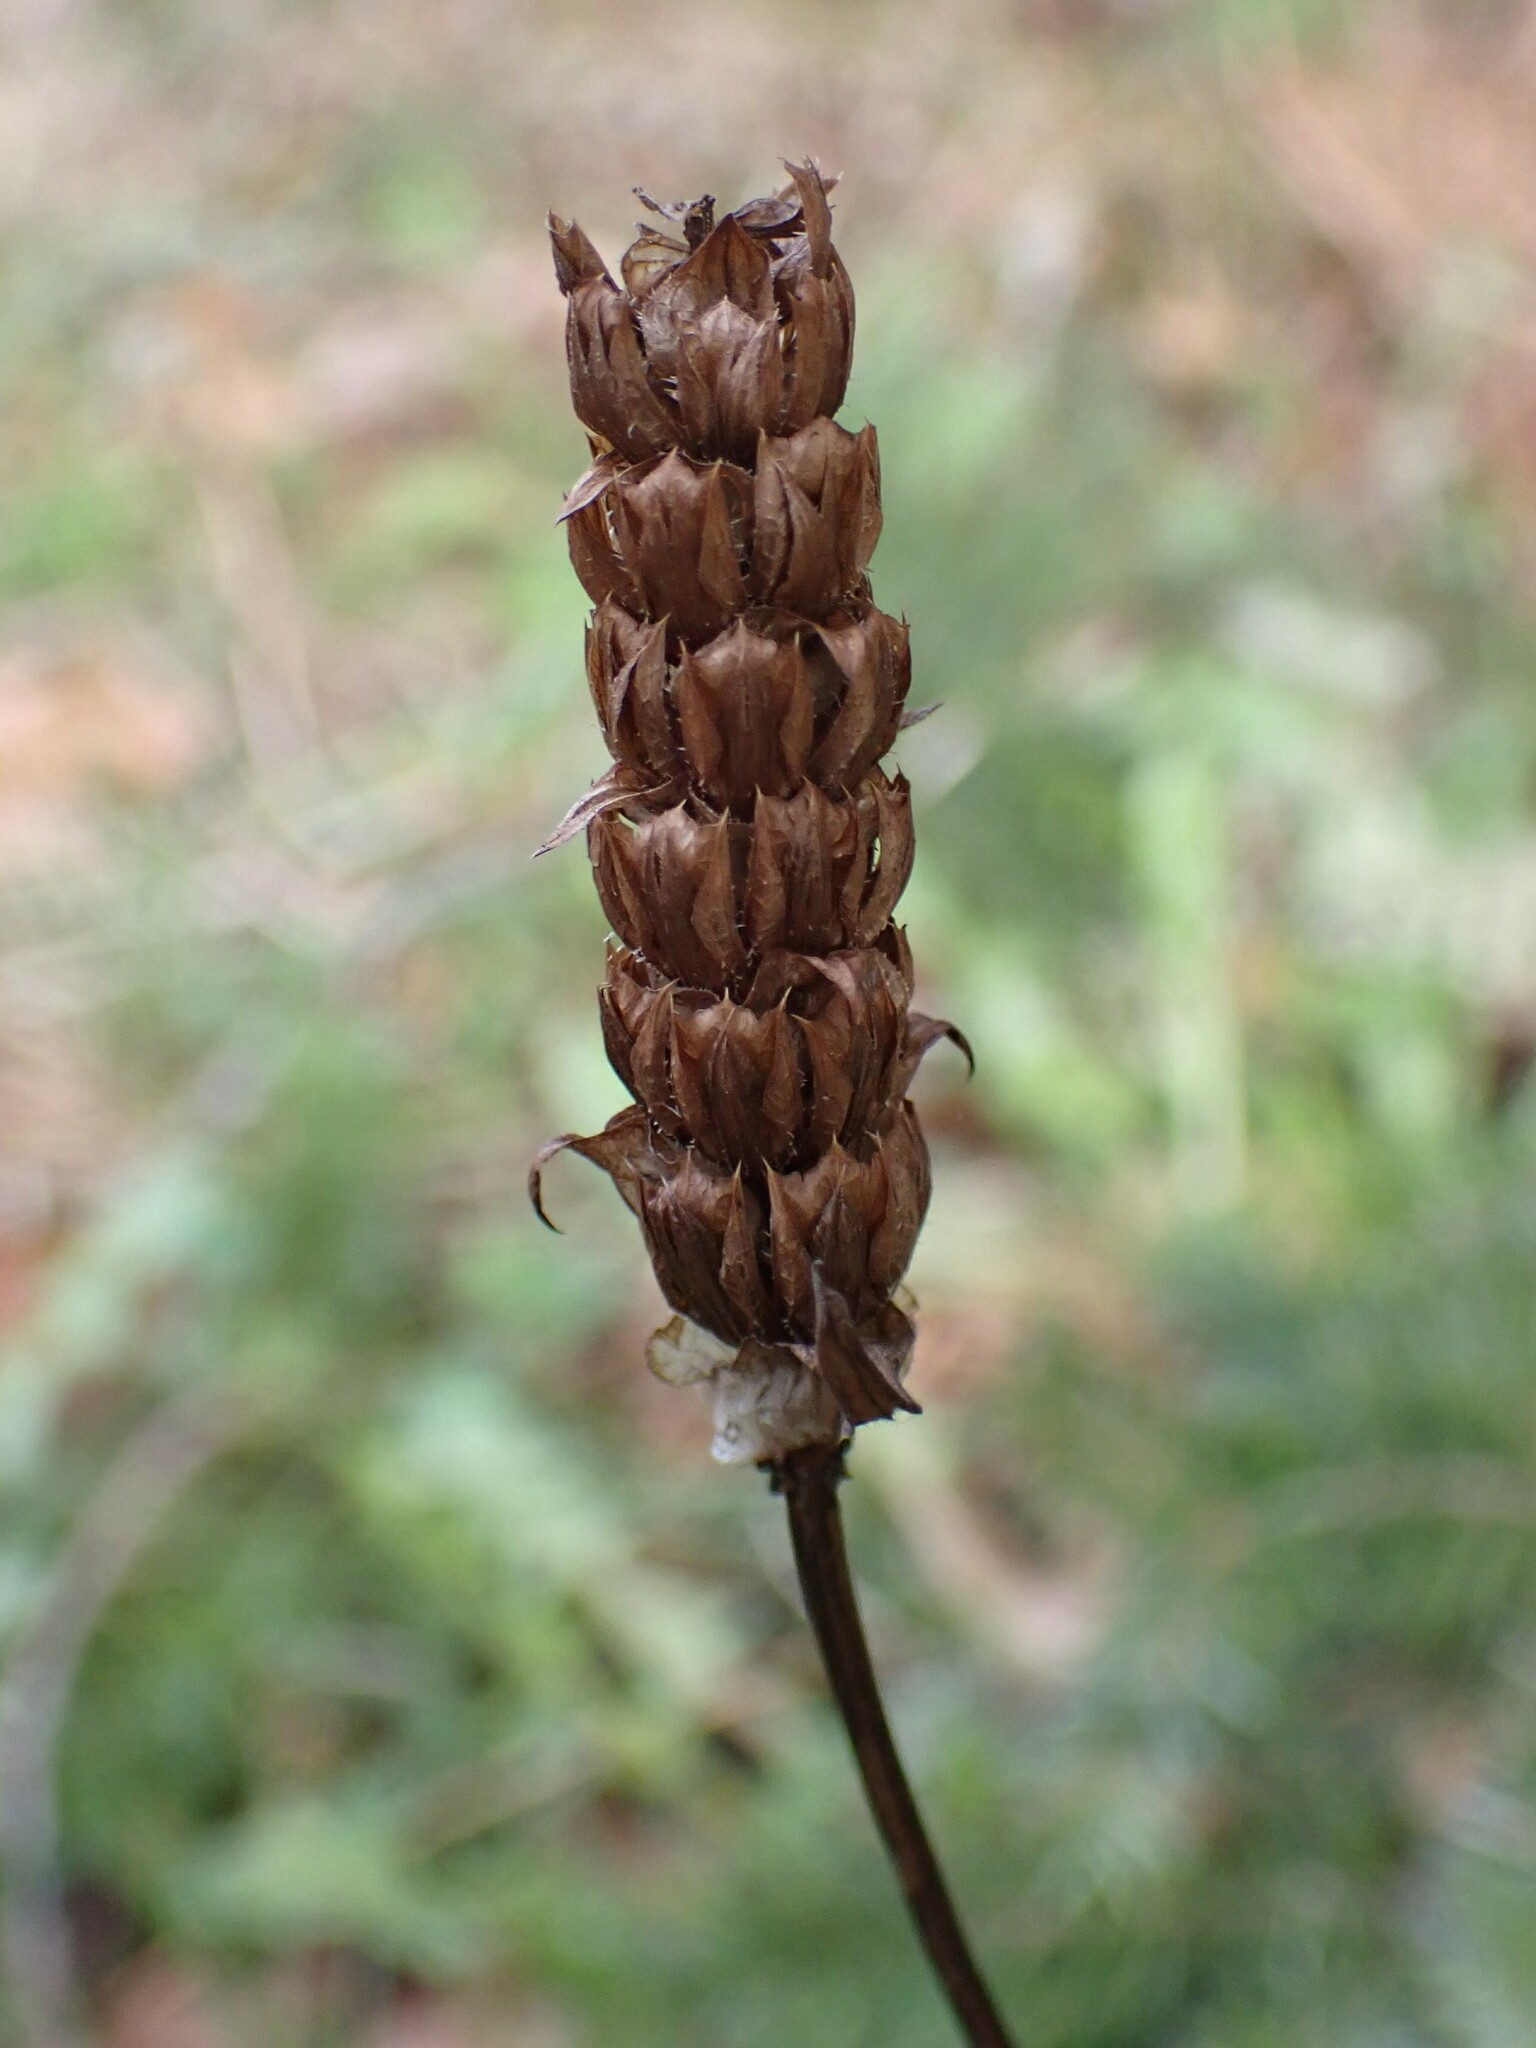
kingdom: Plantae
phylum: Tracheophyta
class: Magnoliopsida
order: Lamiales
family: Lamiaceae
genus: Prunella
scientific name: Prunella vulgaris
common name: Heal-all
